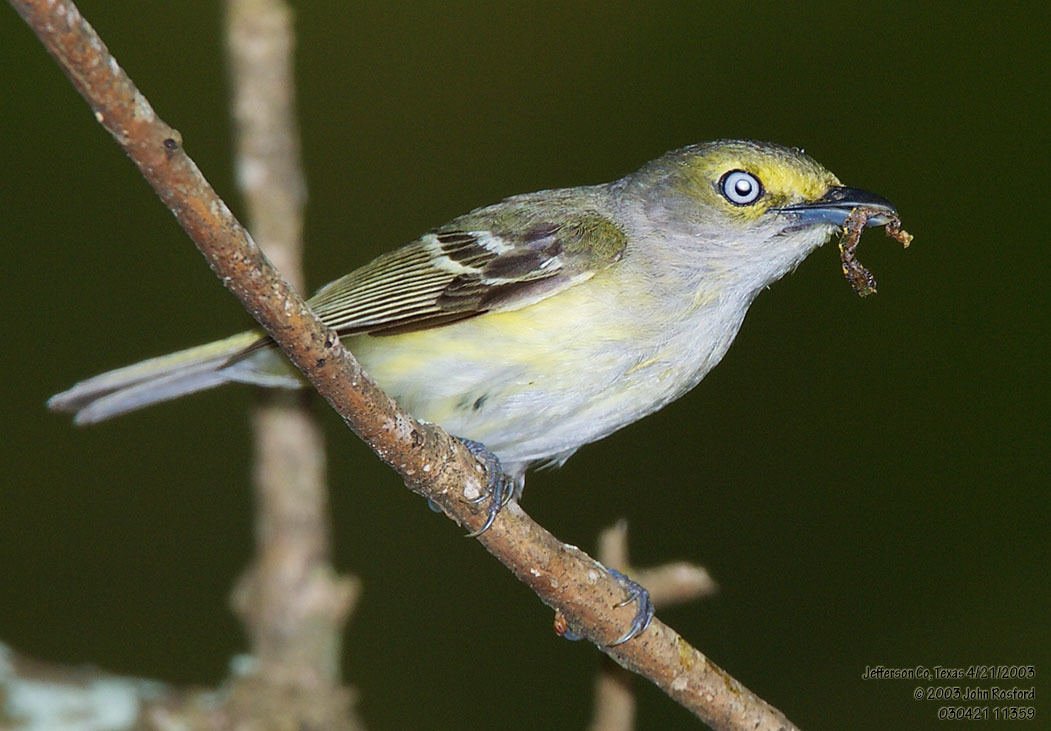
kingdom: Animalia
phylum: Chordata
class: Aves
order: Passeriformes
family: Vireonidae
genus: Vireo
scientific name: Vireo griseus
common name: White-eyed vireo
